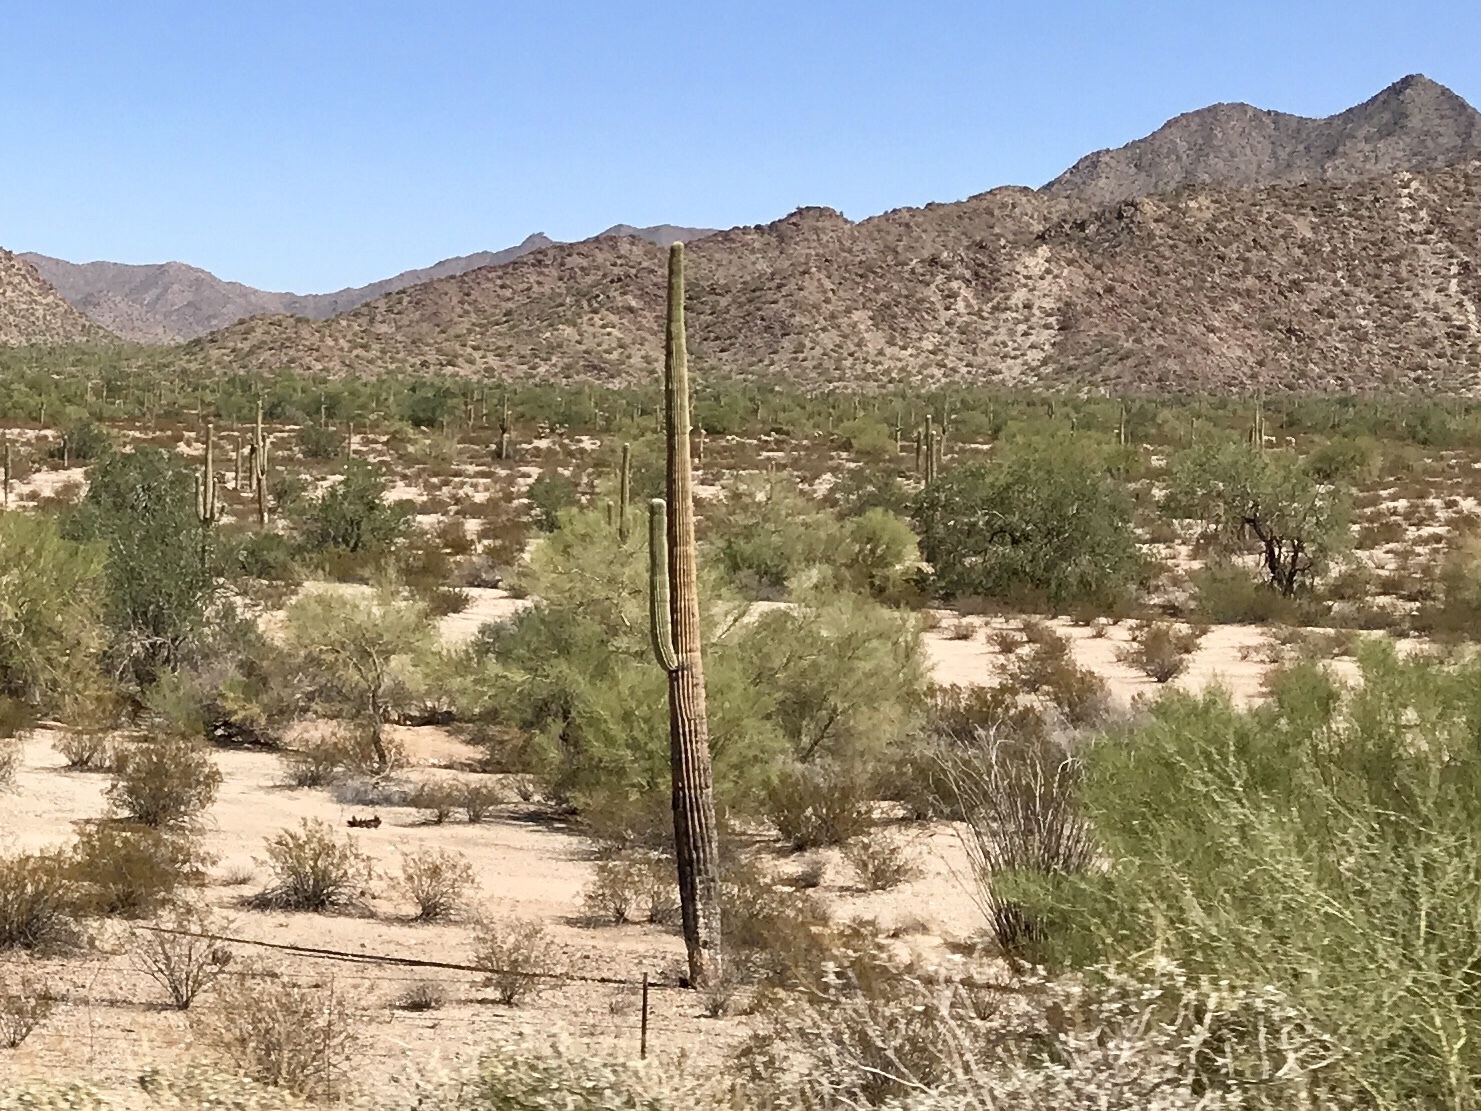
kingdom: Plantae
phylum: Tracheophyta
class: Magnoliopsida
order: Caryophyllales
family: Cactaceae
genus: Carnegiea
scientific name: Carnegiea gigantea
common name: Saguaro
